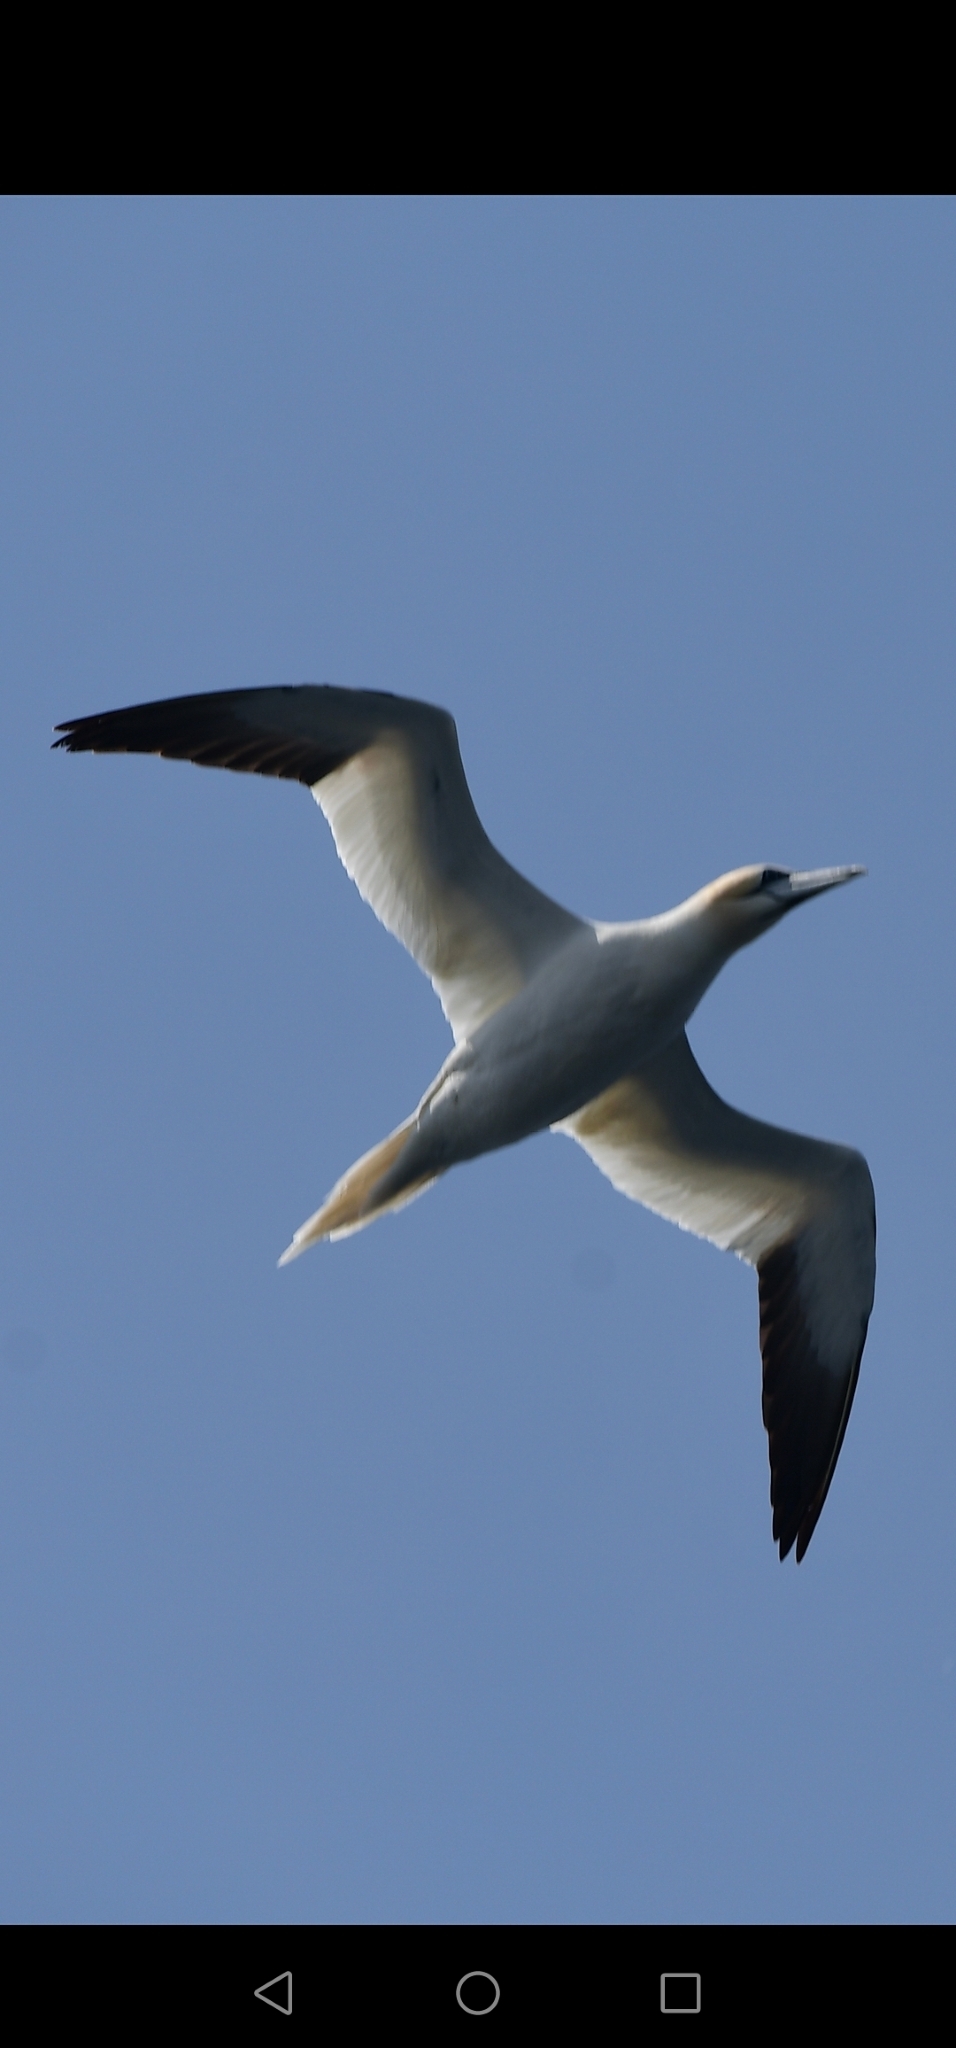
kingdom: Animalia
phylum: Chordata
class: Aves
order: Suliformes
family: Sulidae
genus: Morus
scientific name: Morus bassanus
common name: Northern gannet
